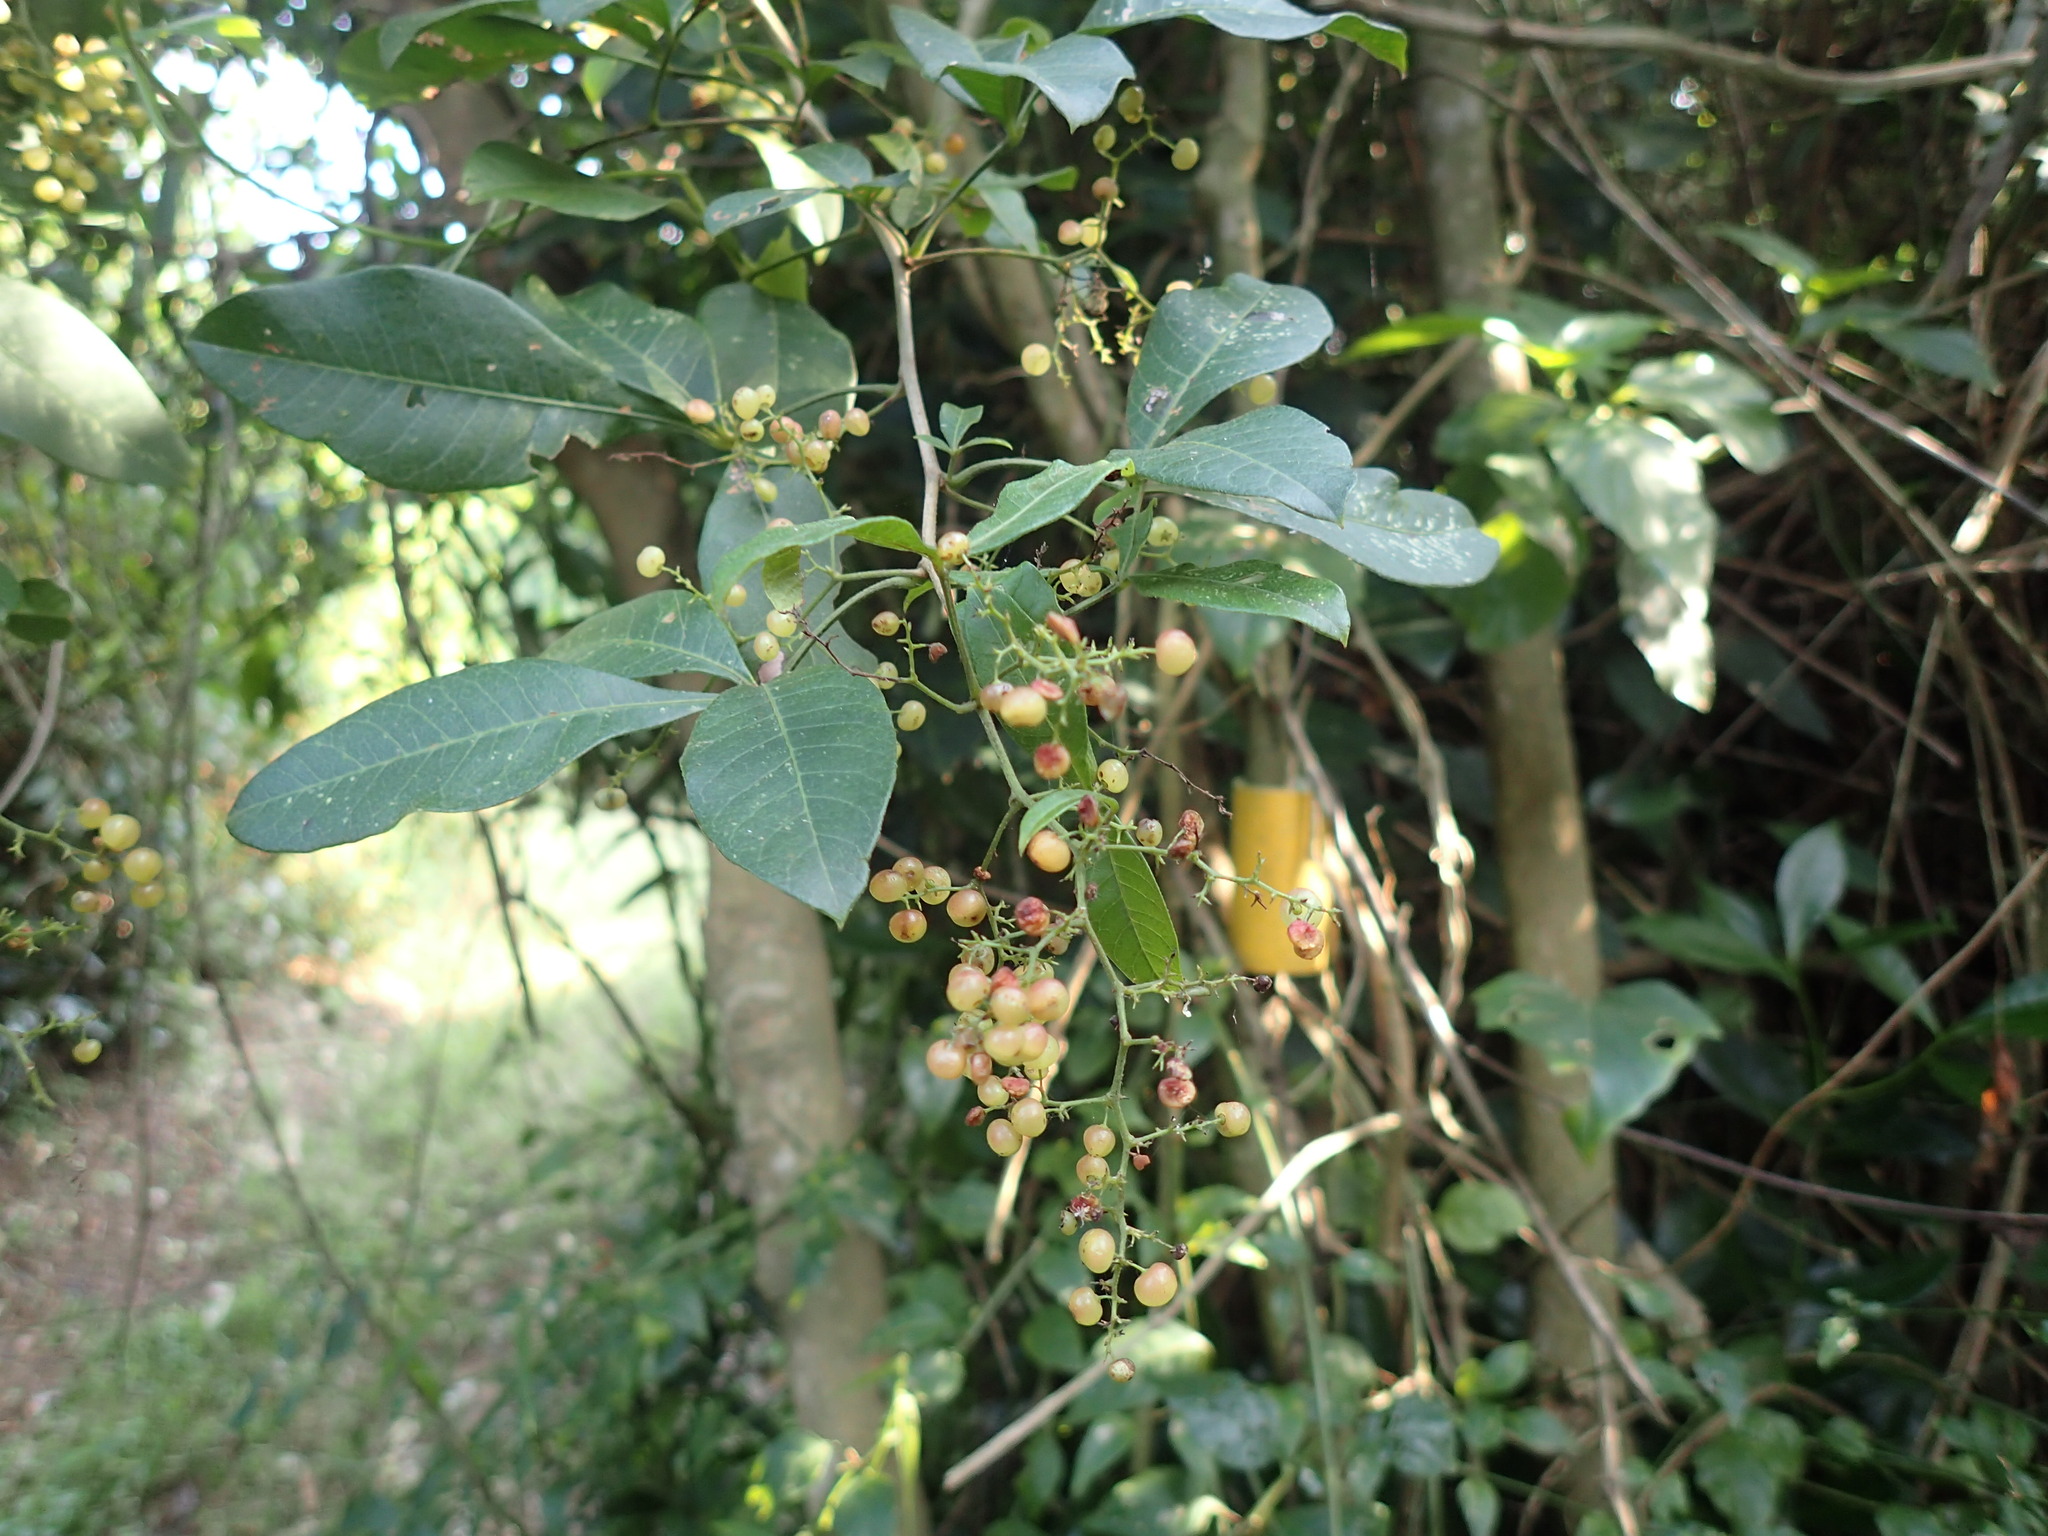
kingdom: Plantae
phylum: Tracheophyta
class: Magnoliopsida
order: Sapindales
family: Anacardiaceae
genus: Searsia
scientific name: Searsia nebulosa
